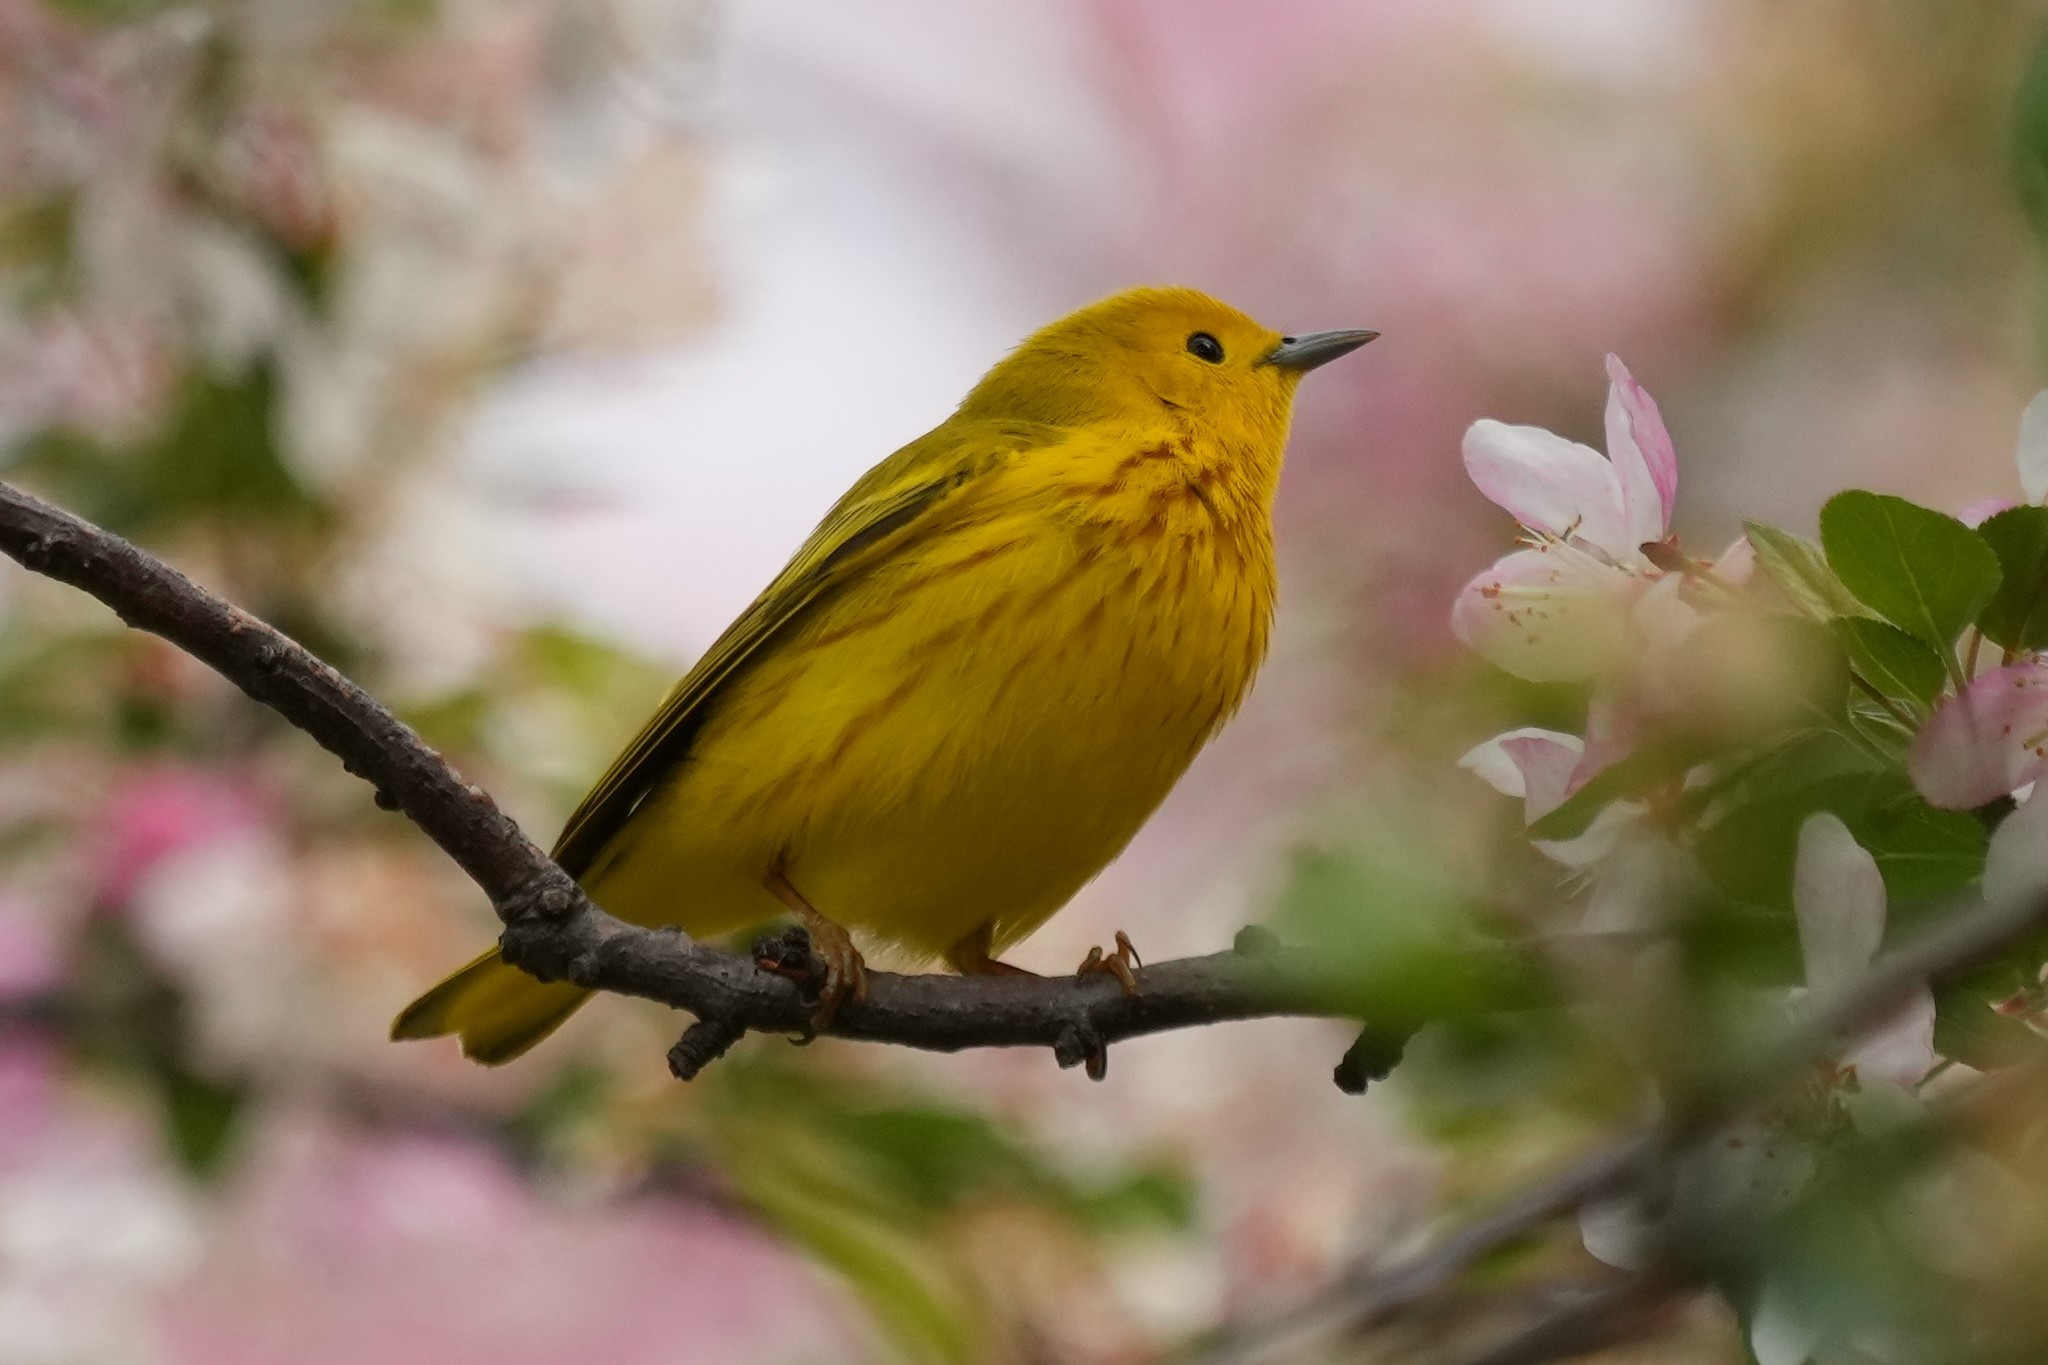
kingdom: Animalia
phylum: Chordata
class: Aves
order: Passeriformes
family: Parulidae
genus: Setophaga
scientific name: Setophaga petechia
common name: Yellow warbler
